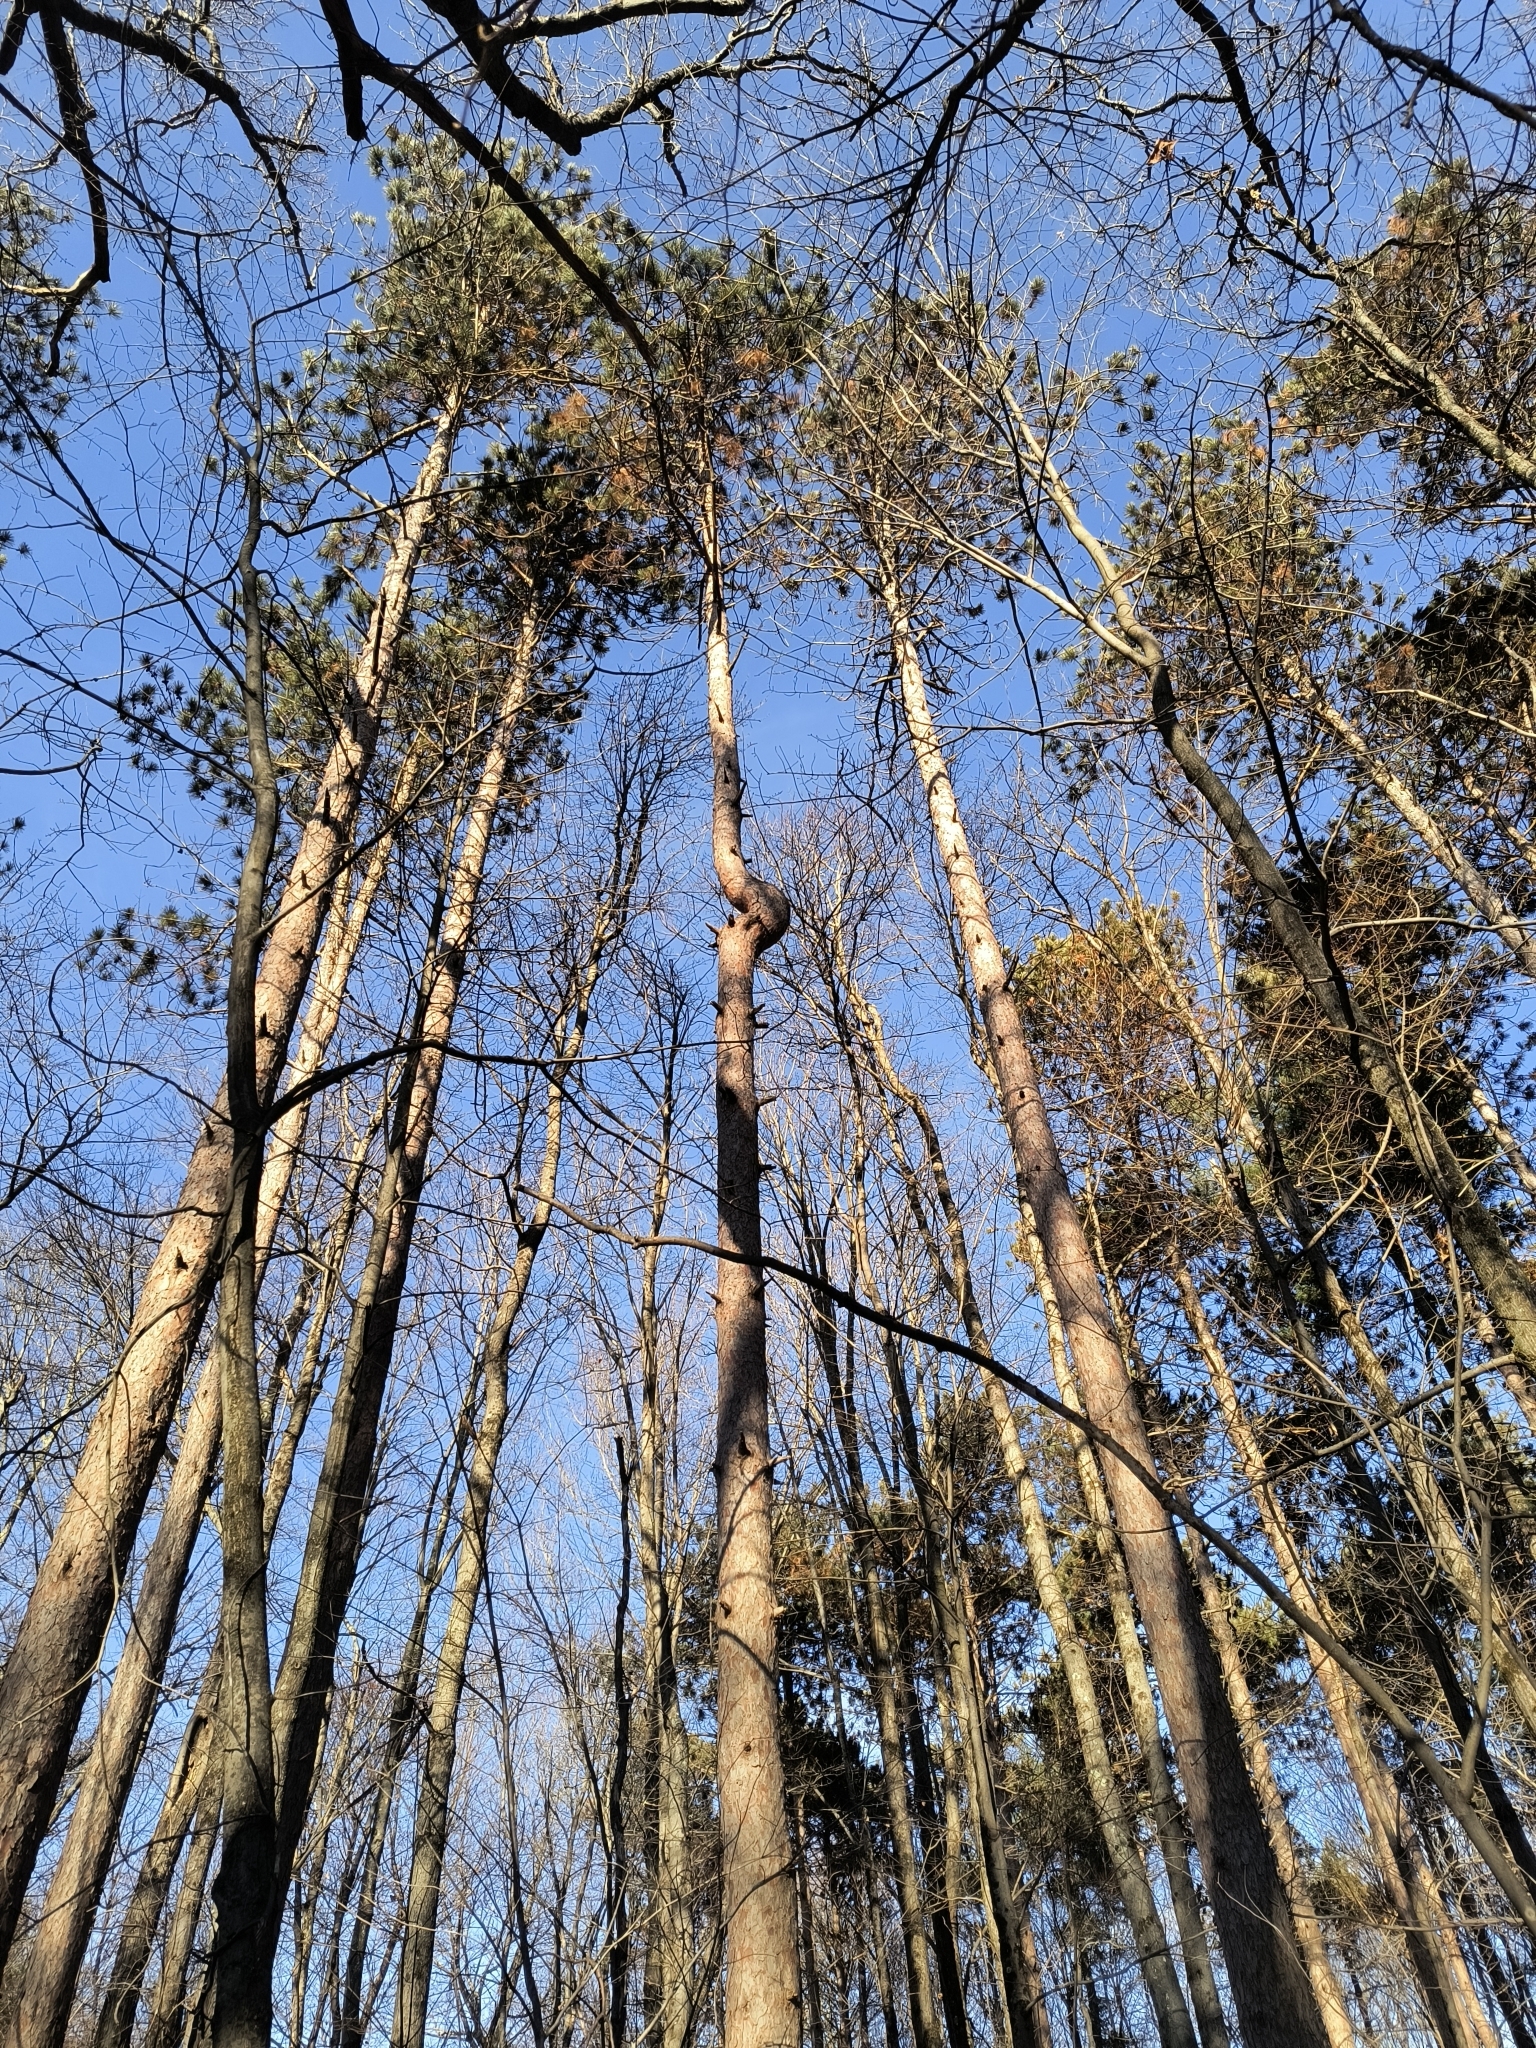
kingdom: Plantae
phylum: Tracheophyta
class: Pinopsida
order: Pinales
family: Pinaceae
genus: Pinus
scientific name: Pinus resinosa
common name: Norway pine
